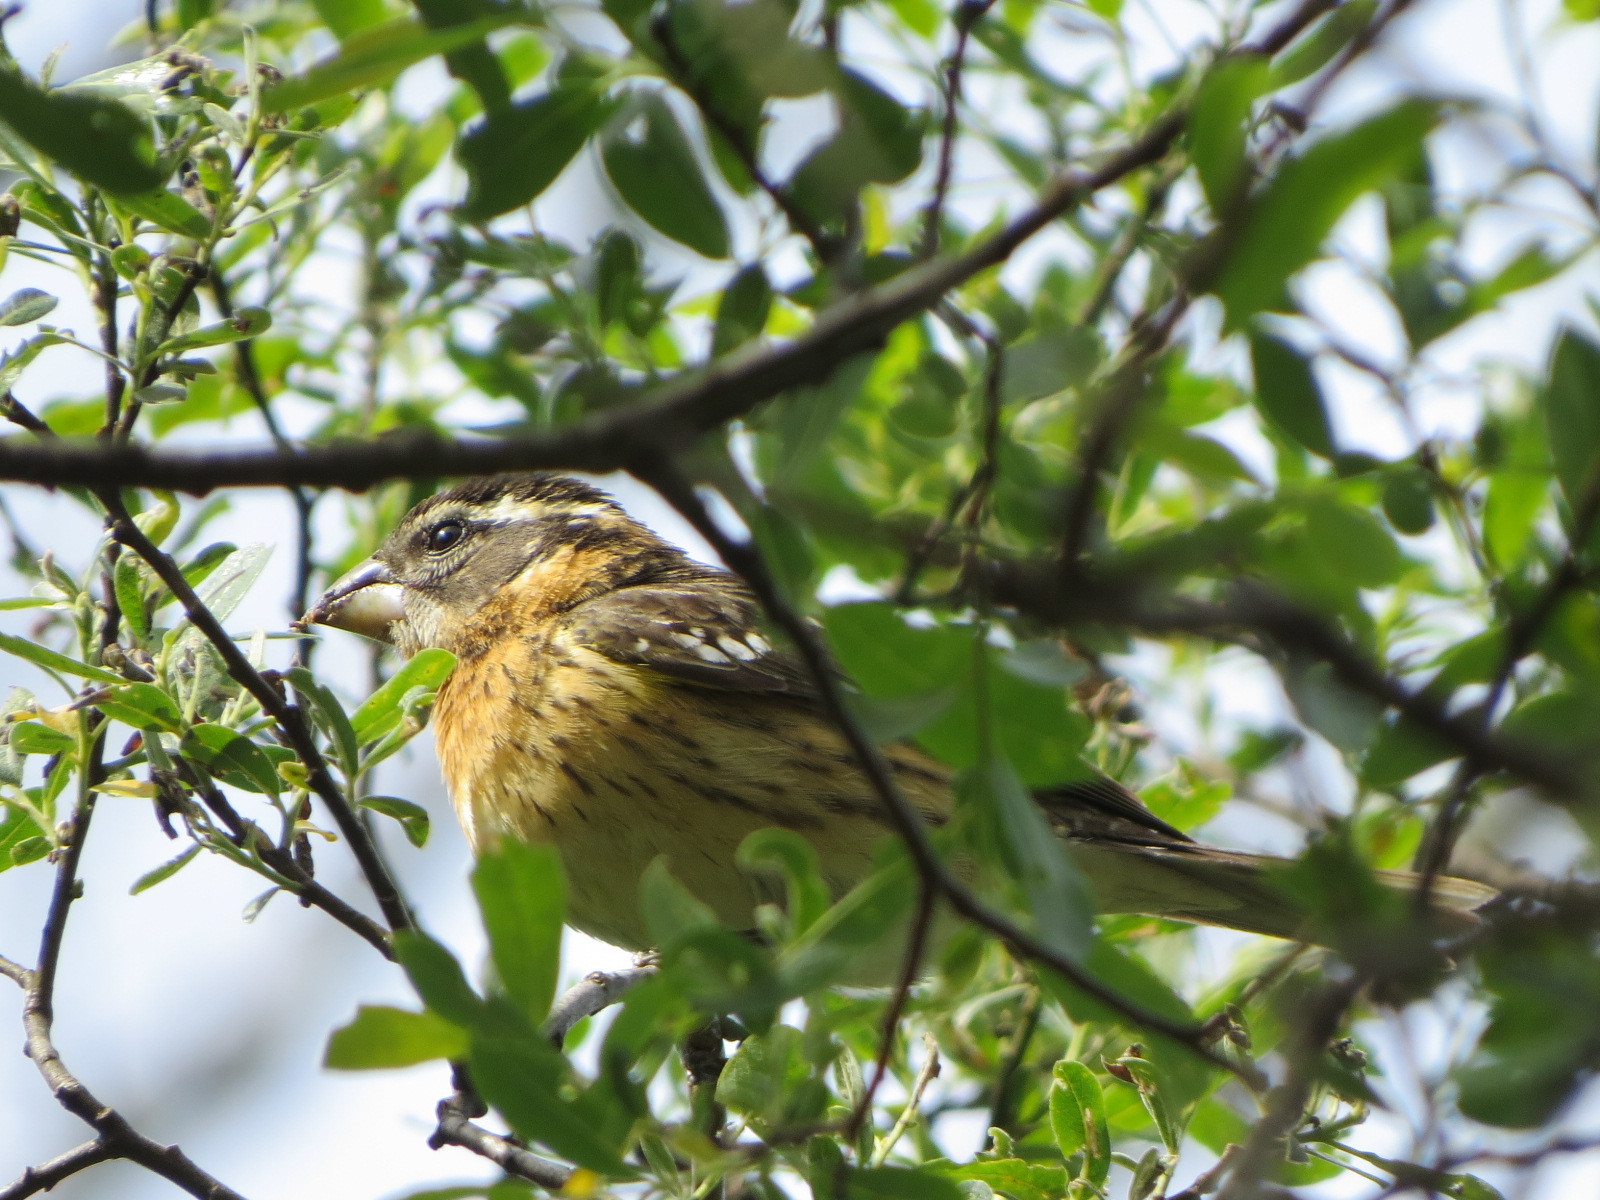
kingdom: Animalia
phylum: Chordata
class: Aves
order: Passeriformes
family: Cardinalidae
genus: Pheucticus
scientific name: Pheucticus melanocephalus
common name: Black-headed grosbeak
